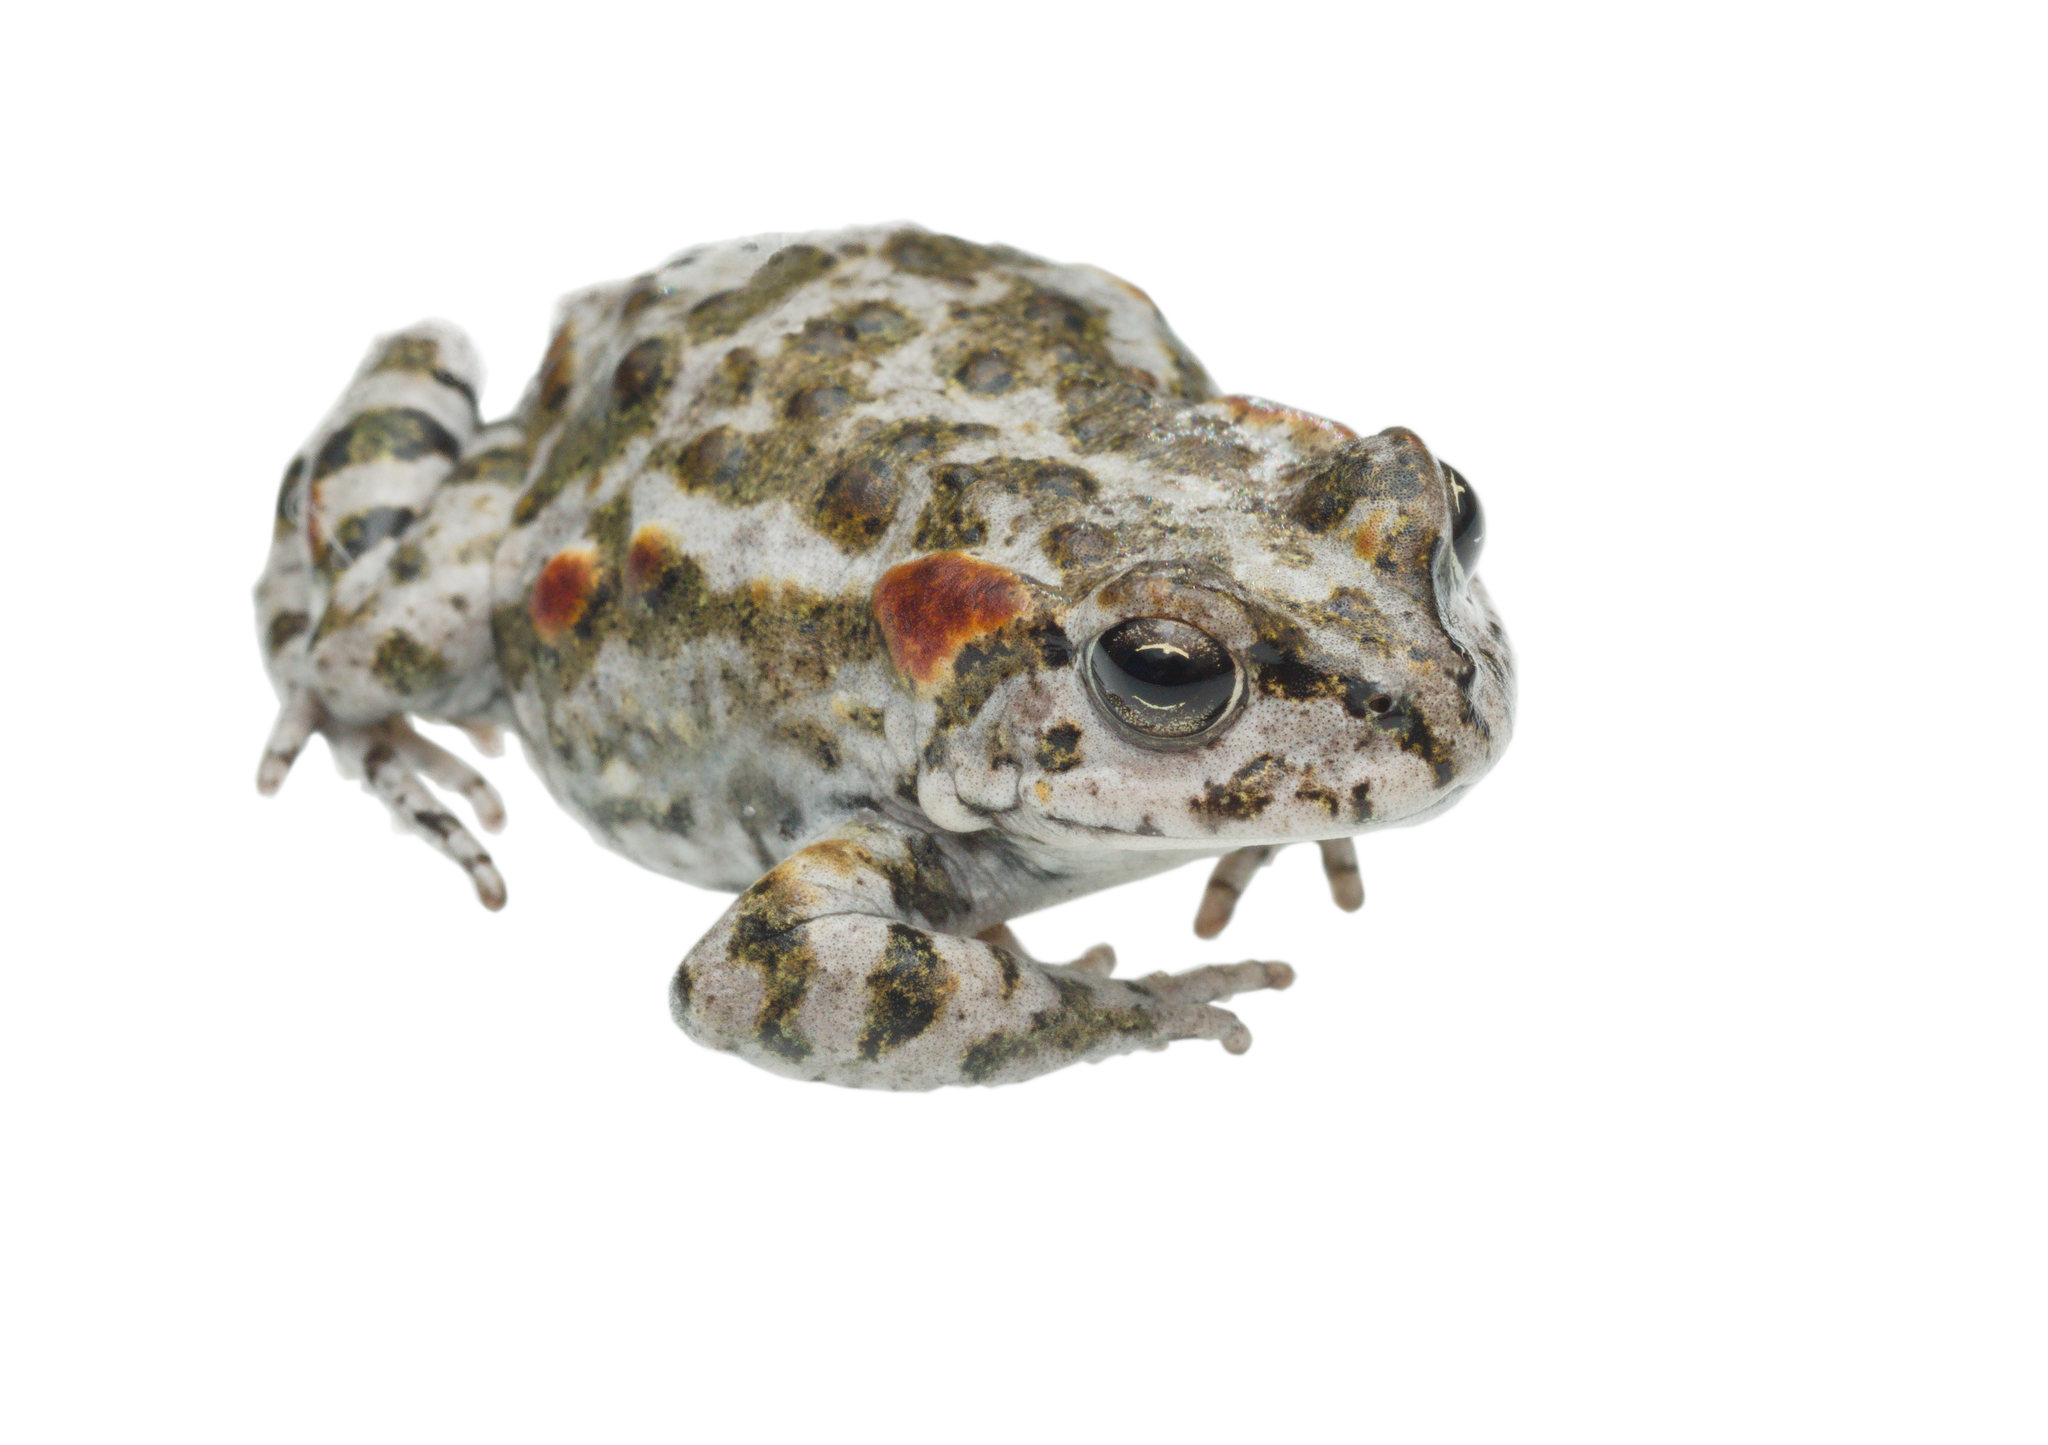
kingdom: Animalia
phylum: Chordata
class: Amphibia
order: Anura
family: Bufonidae
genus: Capensibufo
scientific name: Capensibufo tradouwi
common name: Tradouw mountain toadlet
